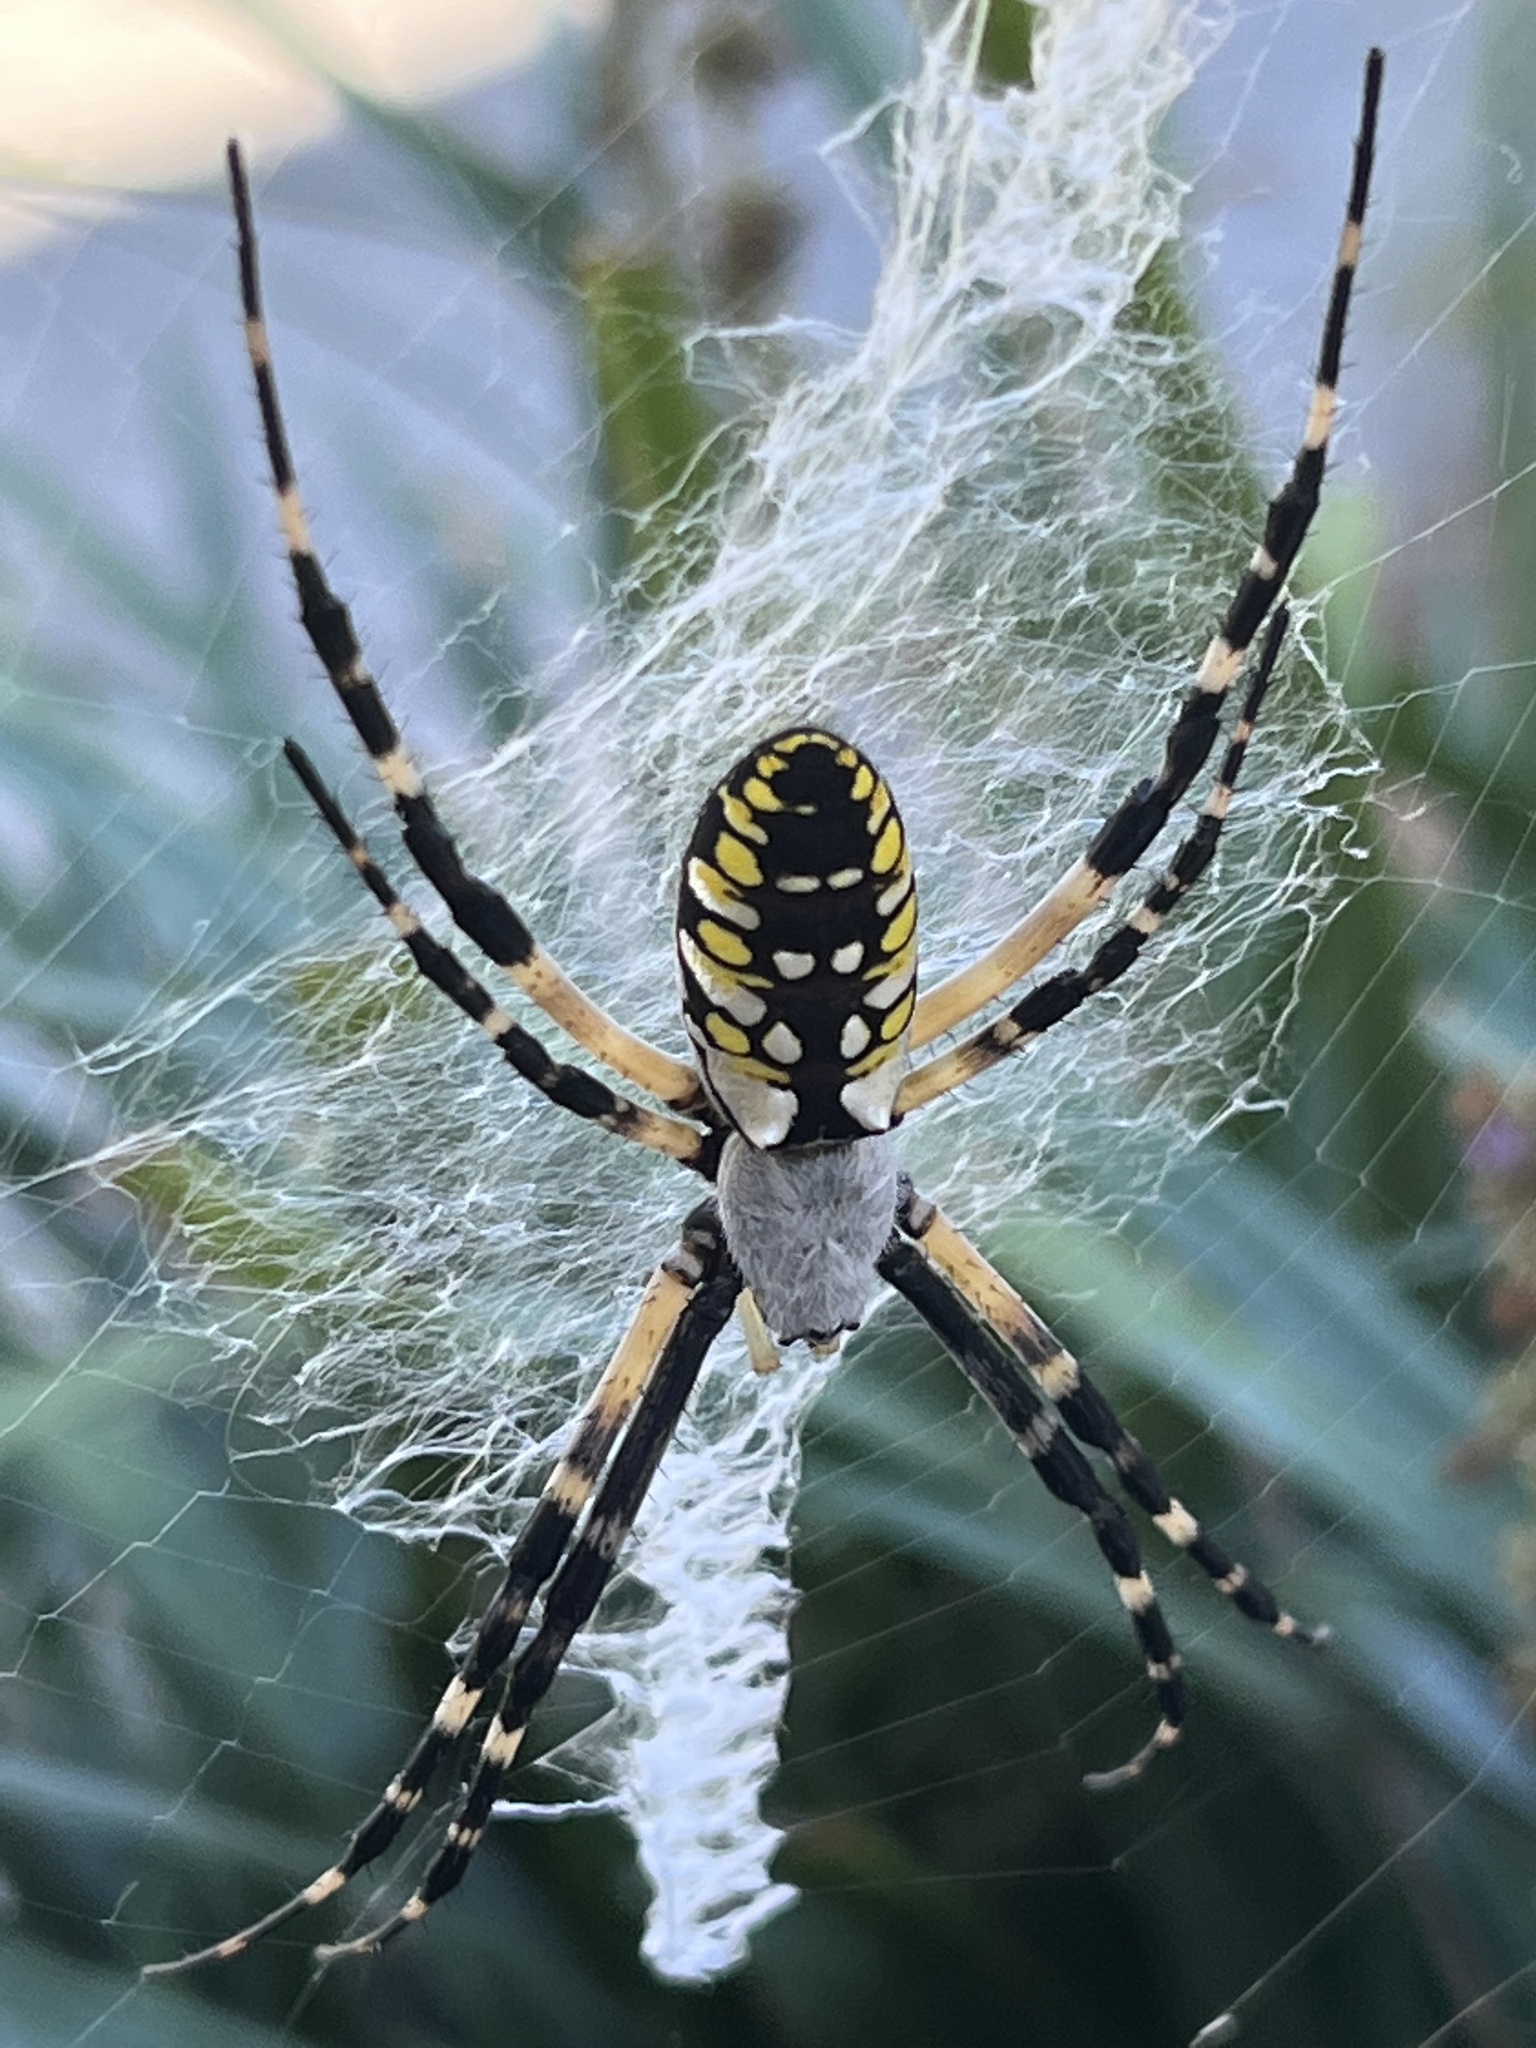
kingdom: Animalia
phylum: Arthropoda
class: Arachnida
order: Araneae
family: Araneidae
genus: Argiope
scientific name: Argiope aurantia
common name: Orb weavers
